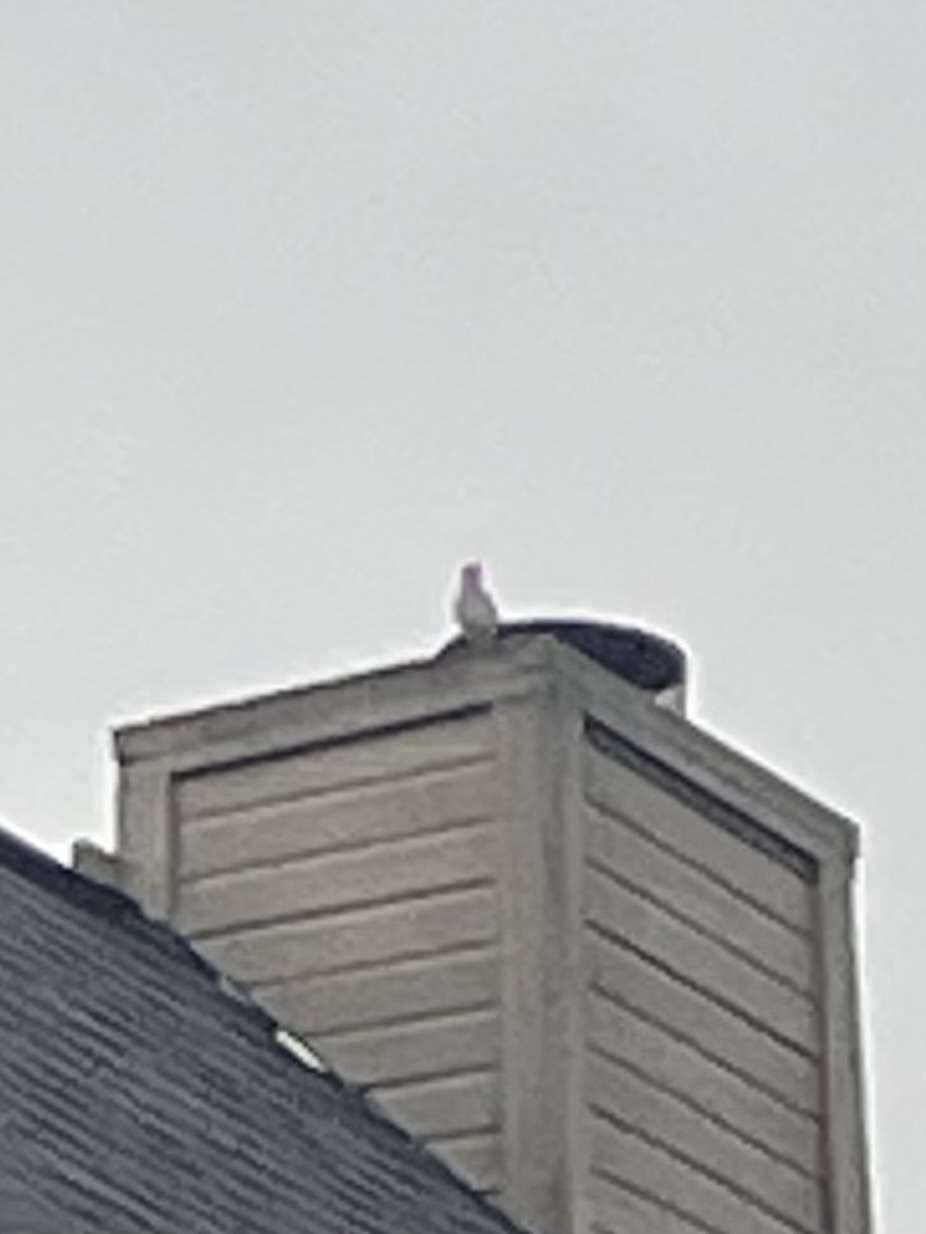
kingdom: Animalia
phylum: Chordata
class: Aves
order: Passeriformes
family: Mimidae
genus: Mimus
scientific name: Mimus polyglottos
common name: Northern mockingbird
